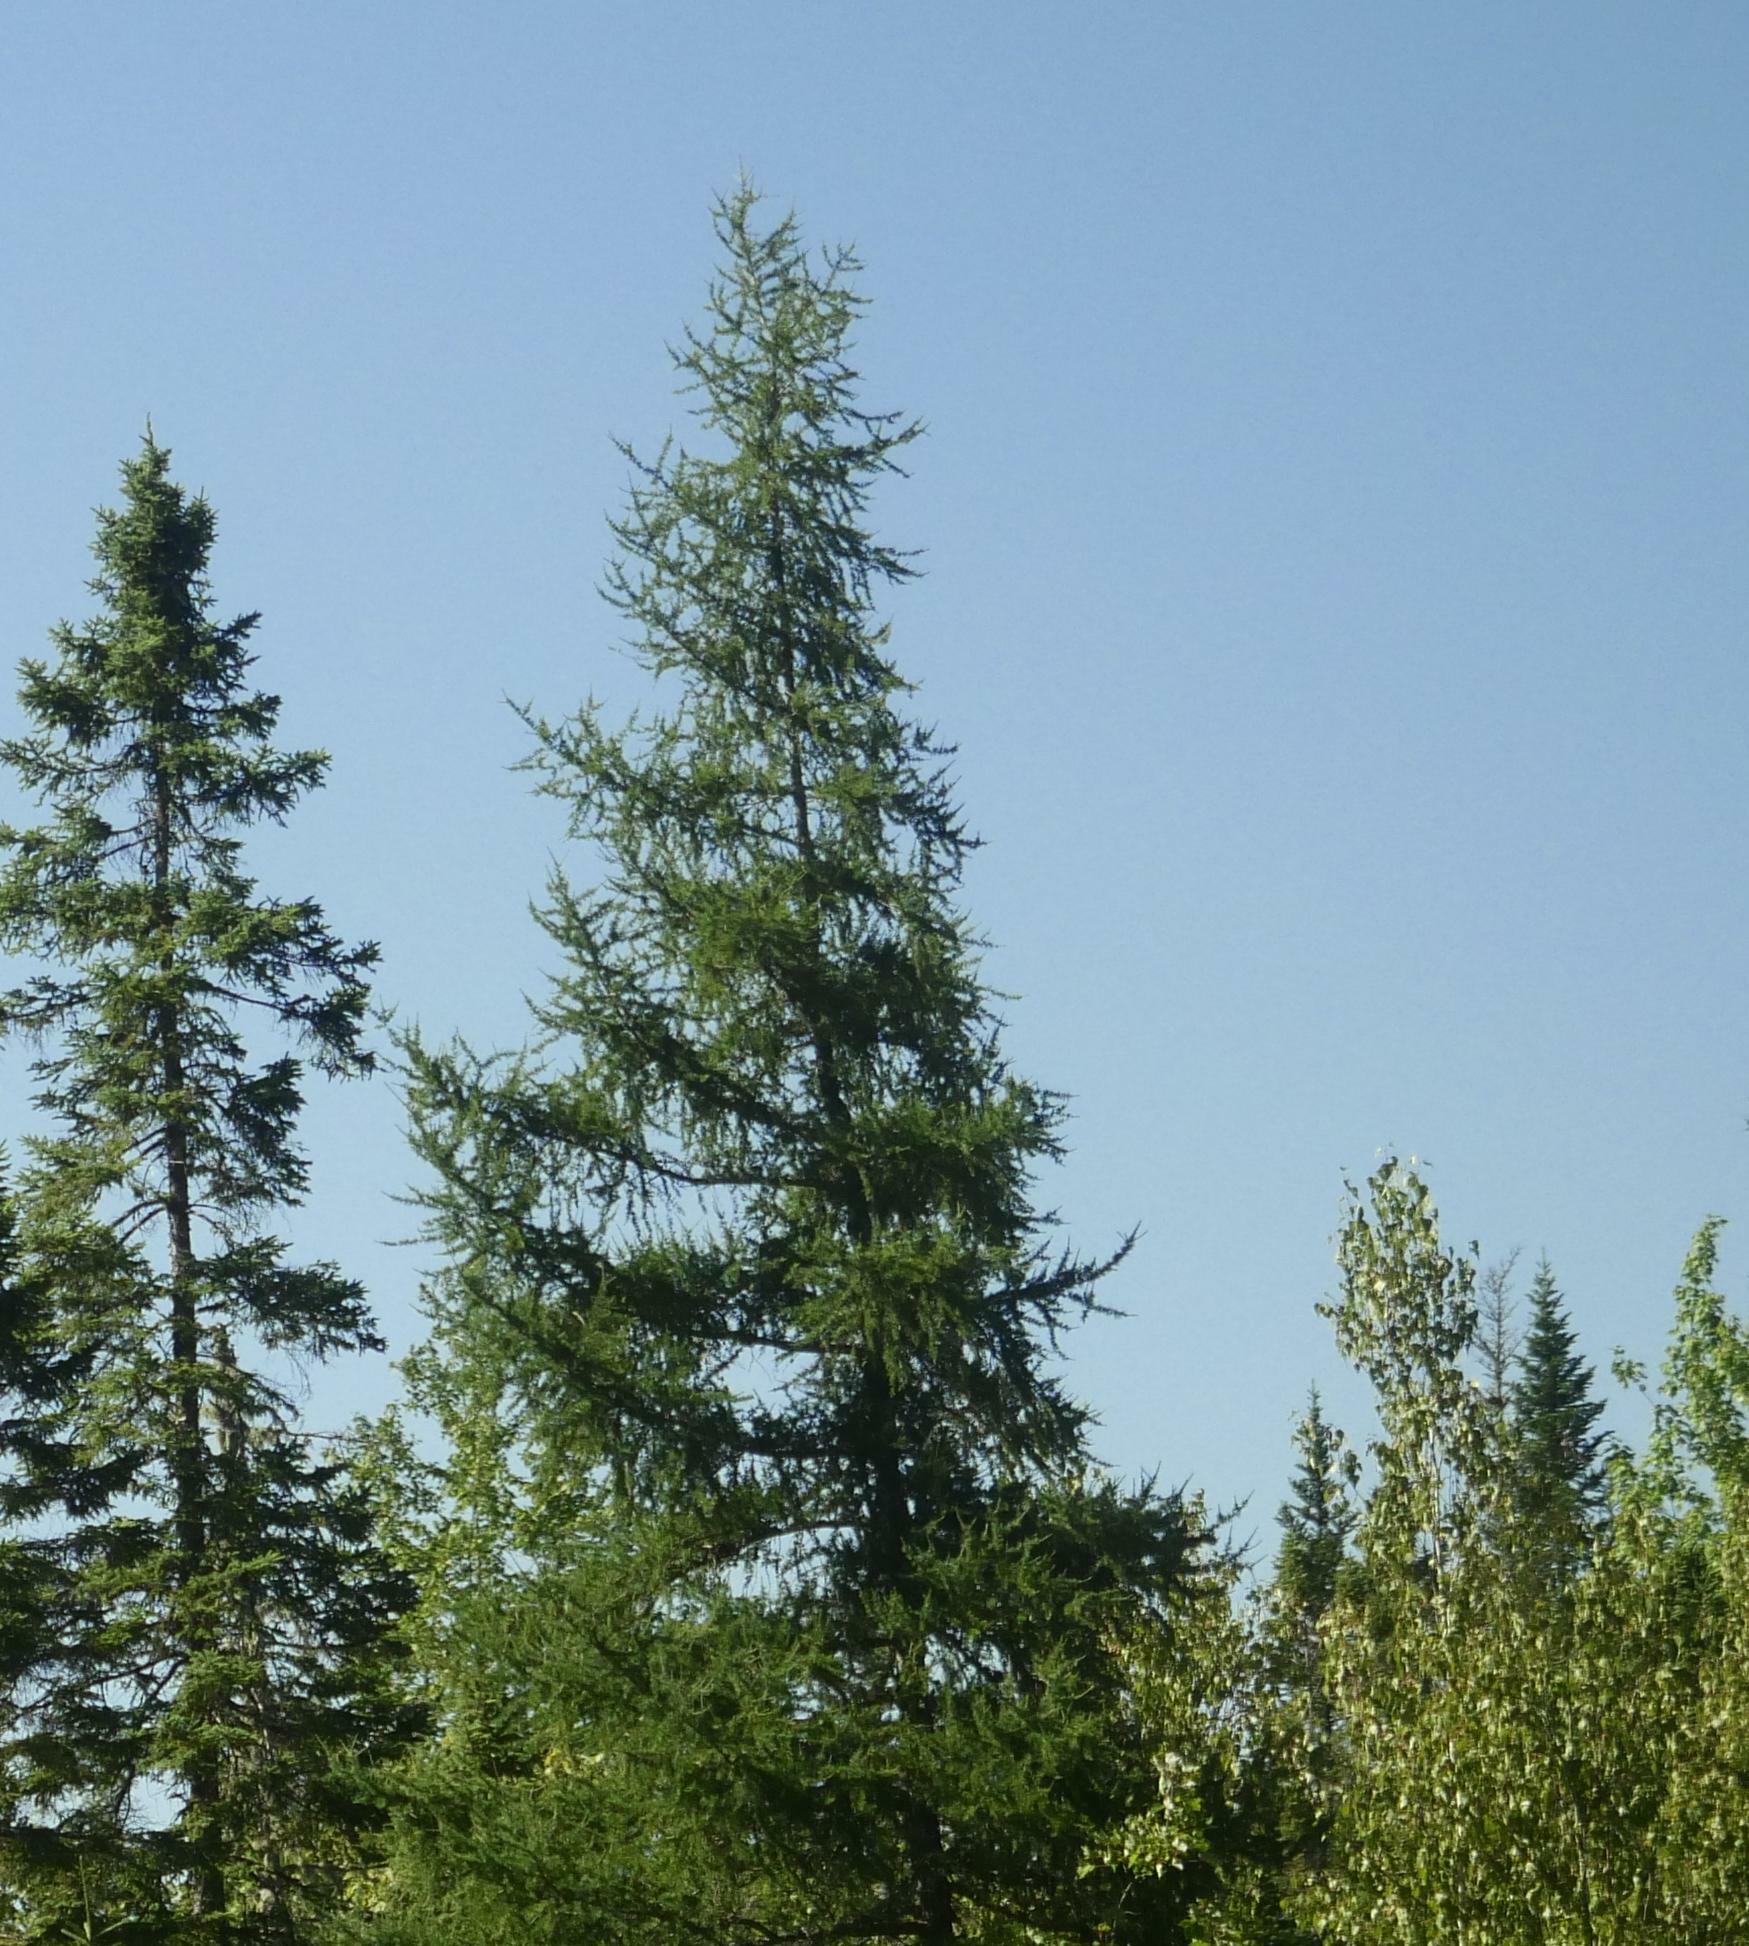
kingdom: Plantae
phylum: Tracheophyta
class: Pinopsida
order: Pinales
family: Pinaceae
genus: Larix
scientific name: Larix laricina
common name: American larch
